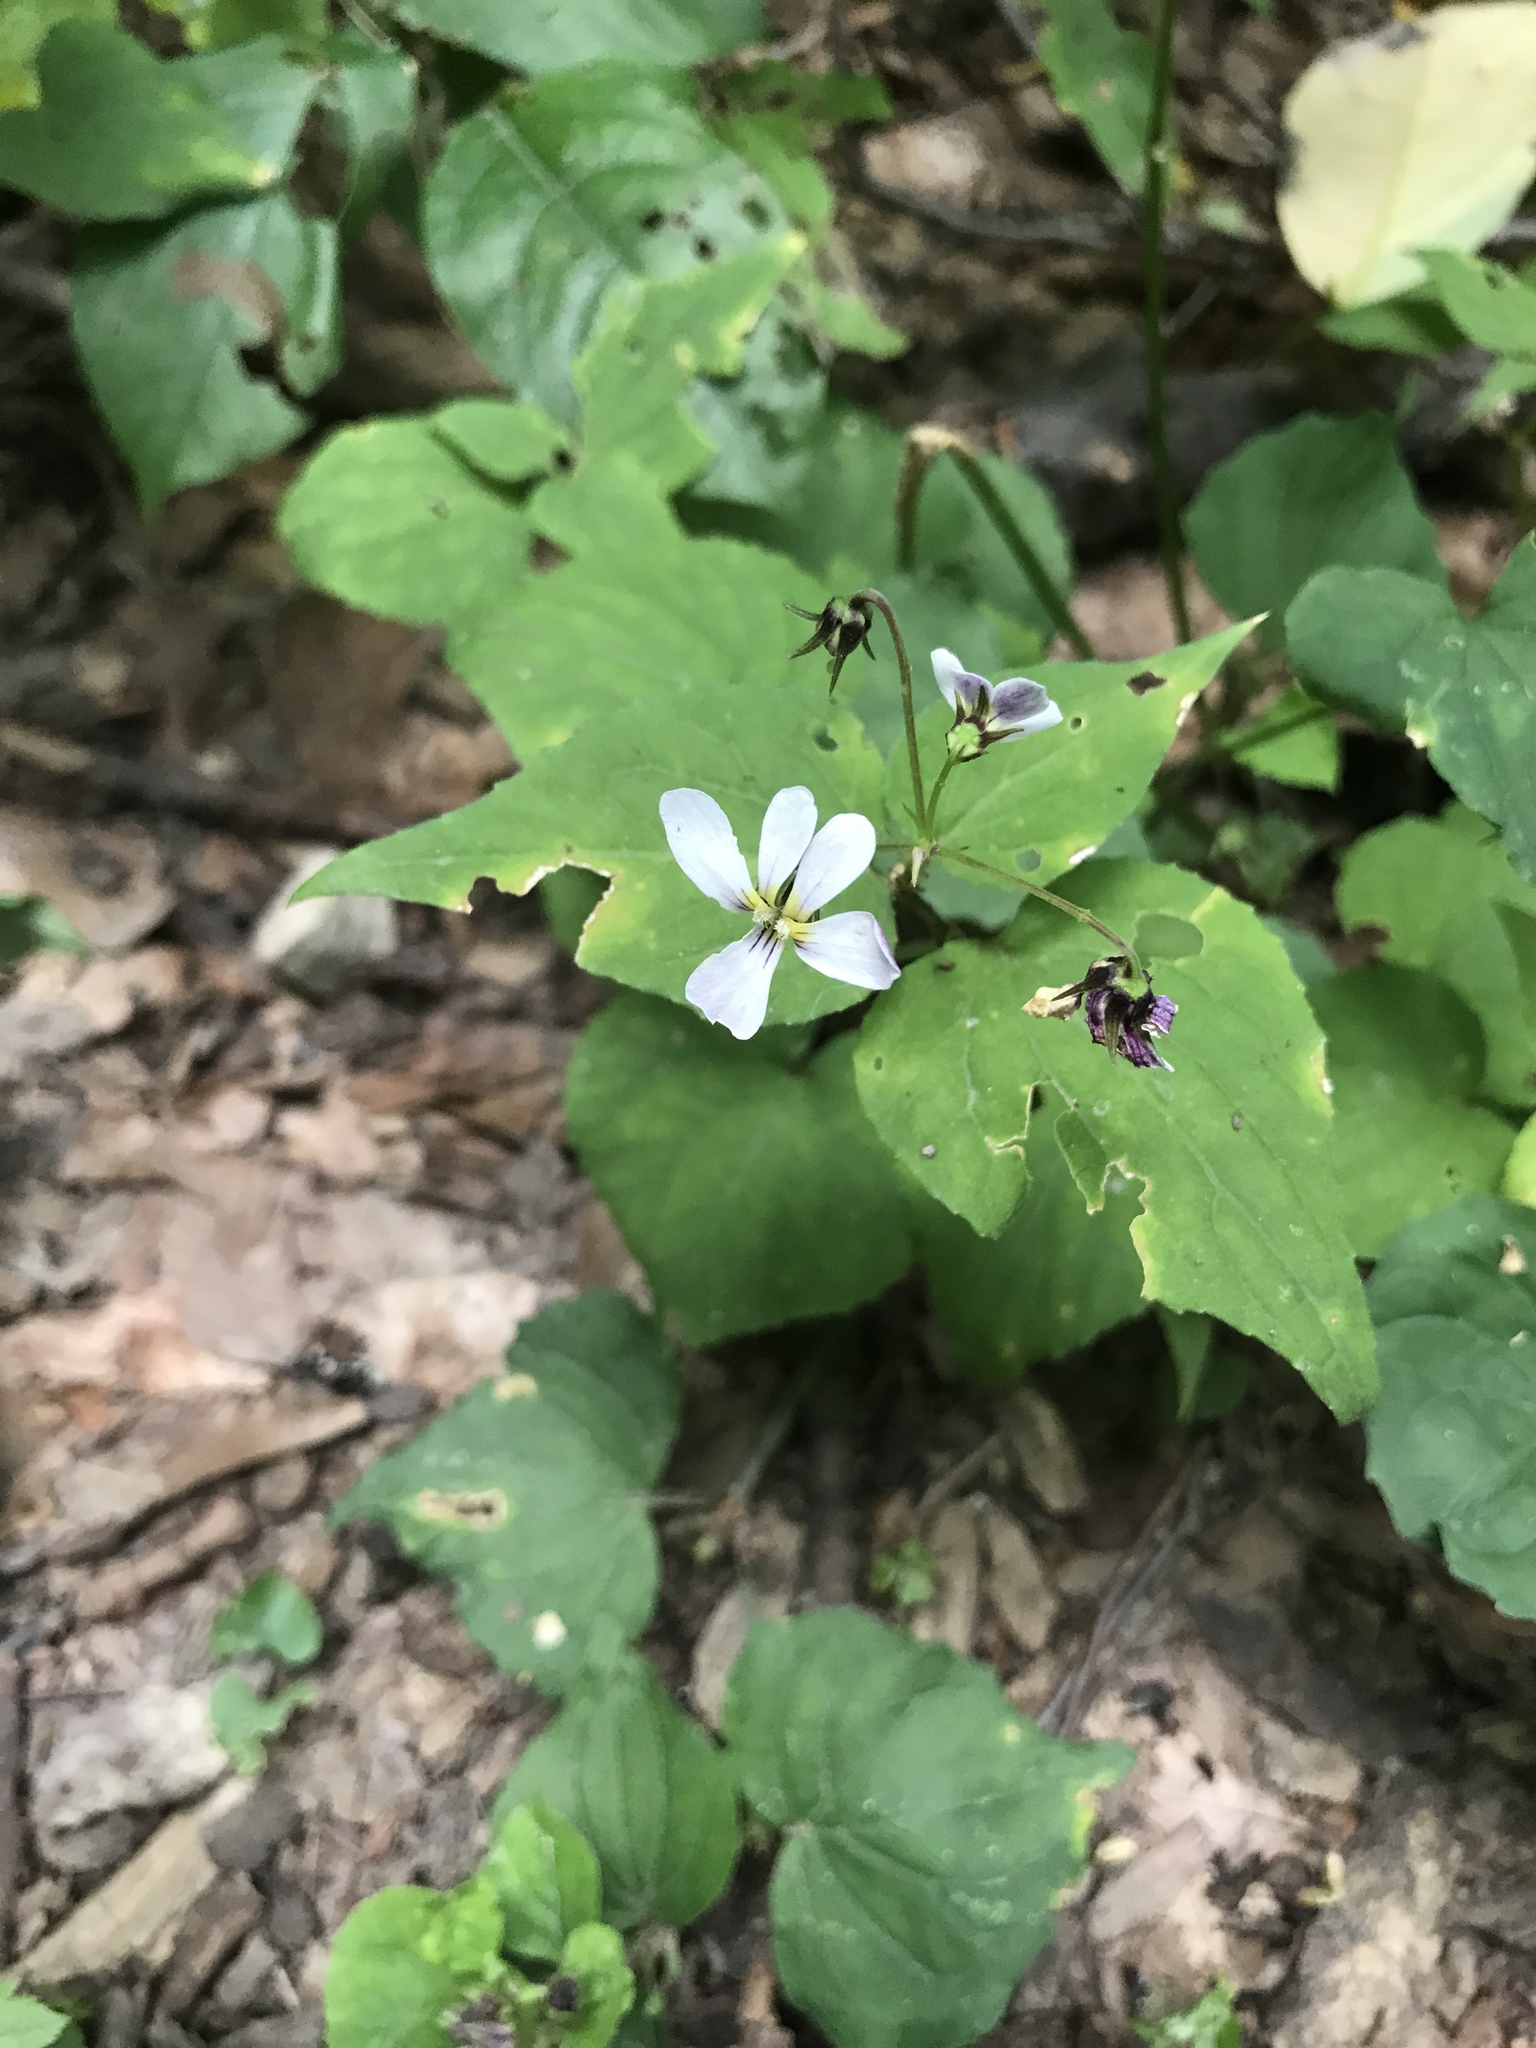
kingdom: Plantae
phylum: Tracheophyta
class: Magnoliopsida
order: Malpighiales
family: Violaceae
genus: Viola
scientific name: Viola canadensis
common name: Canada violet
